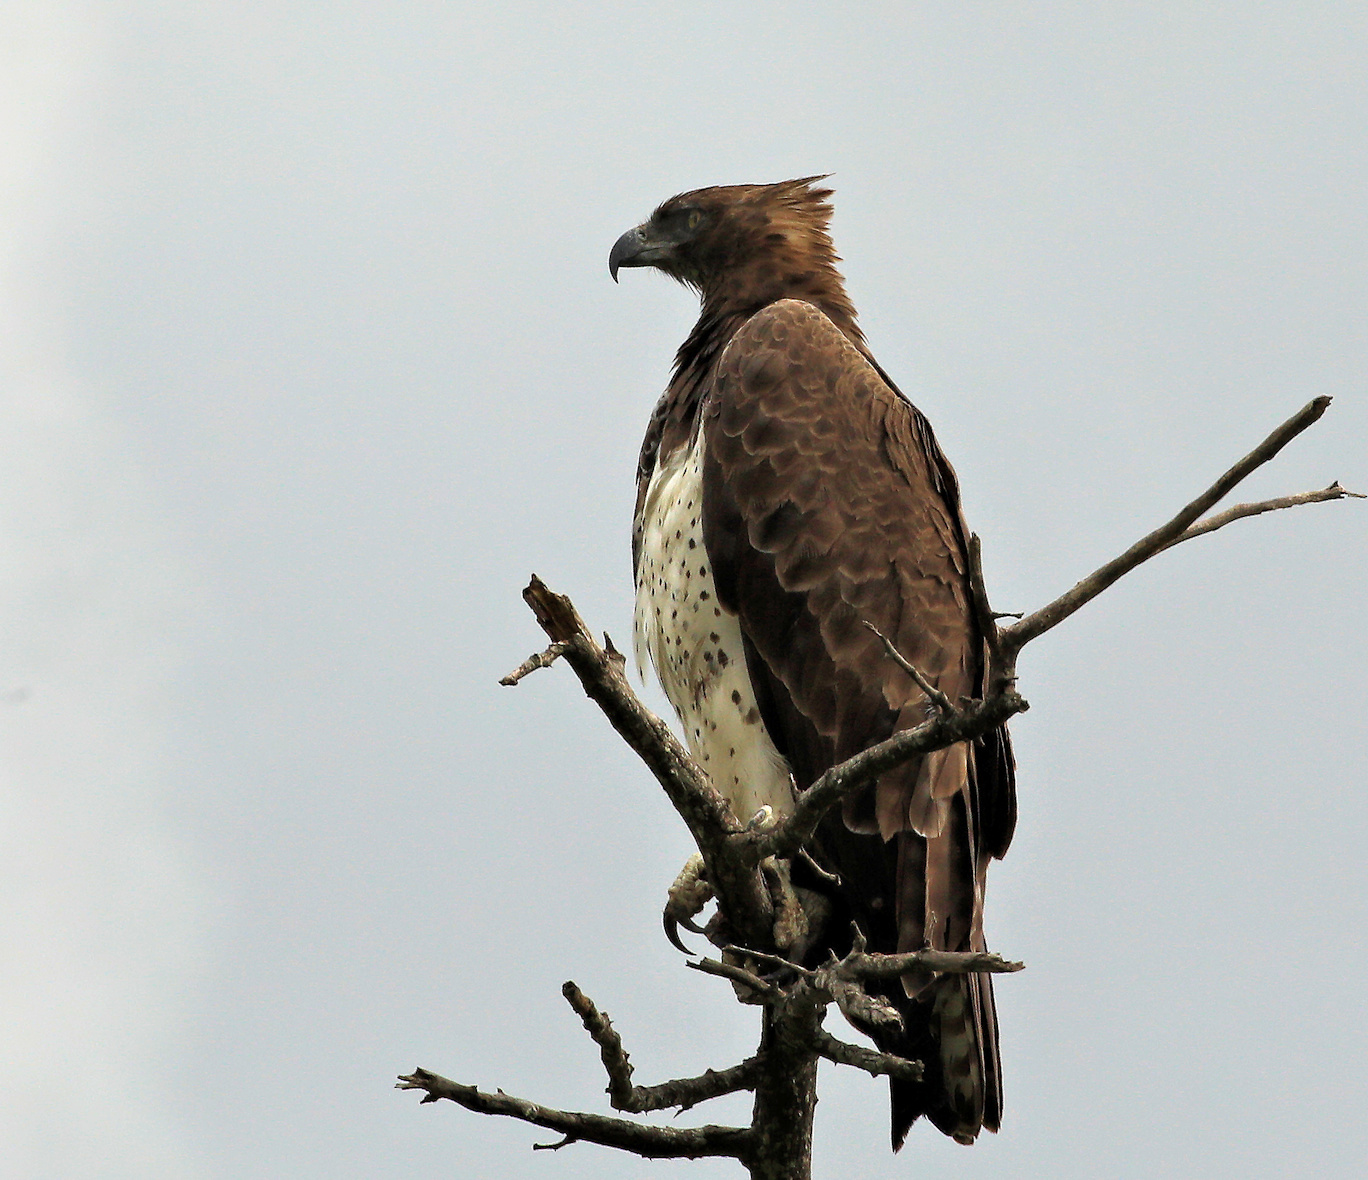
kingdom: Animalia
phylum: Chordata
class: Aves
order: Accipitriformes
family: Accipitridae
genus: Polemaetus
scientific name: Polemaetus bellicosus
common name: Martial eagle
